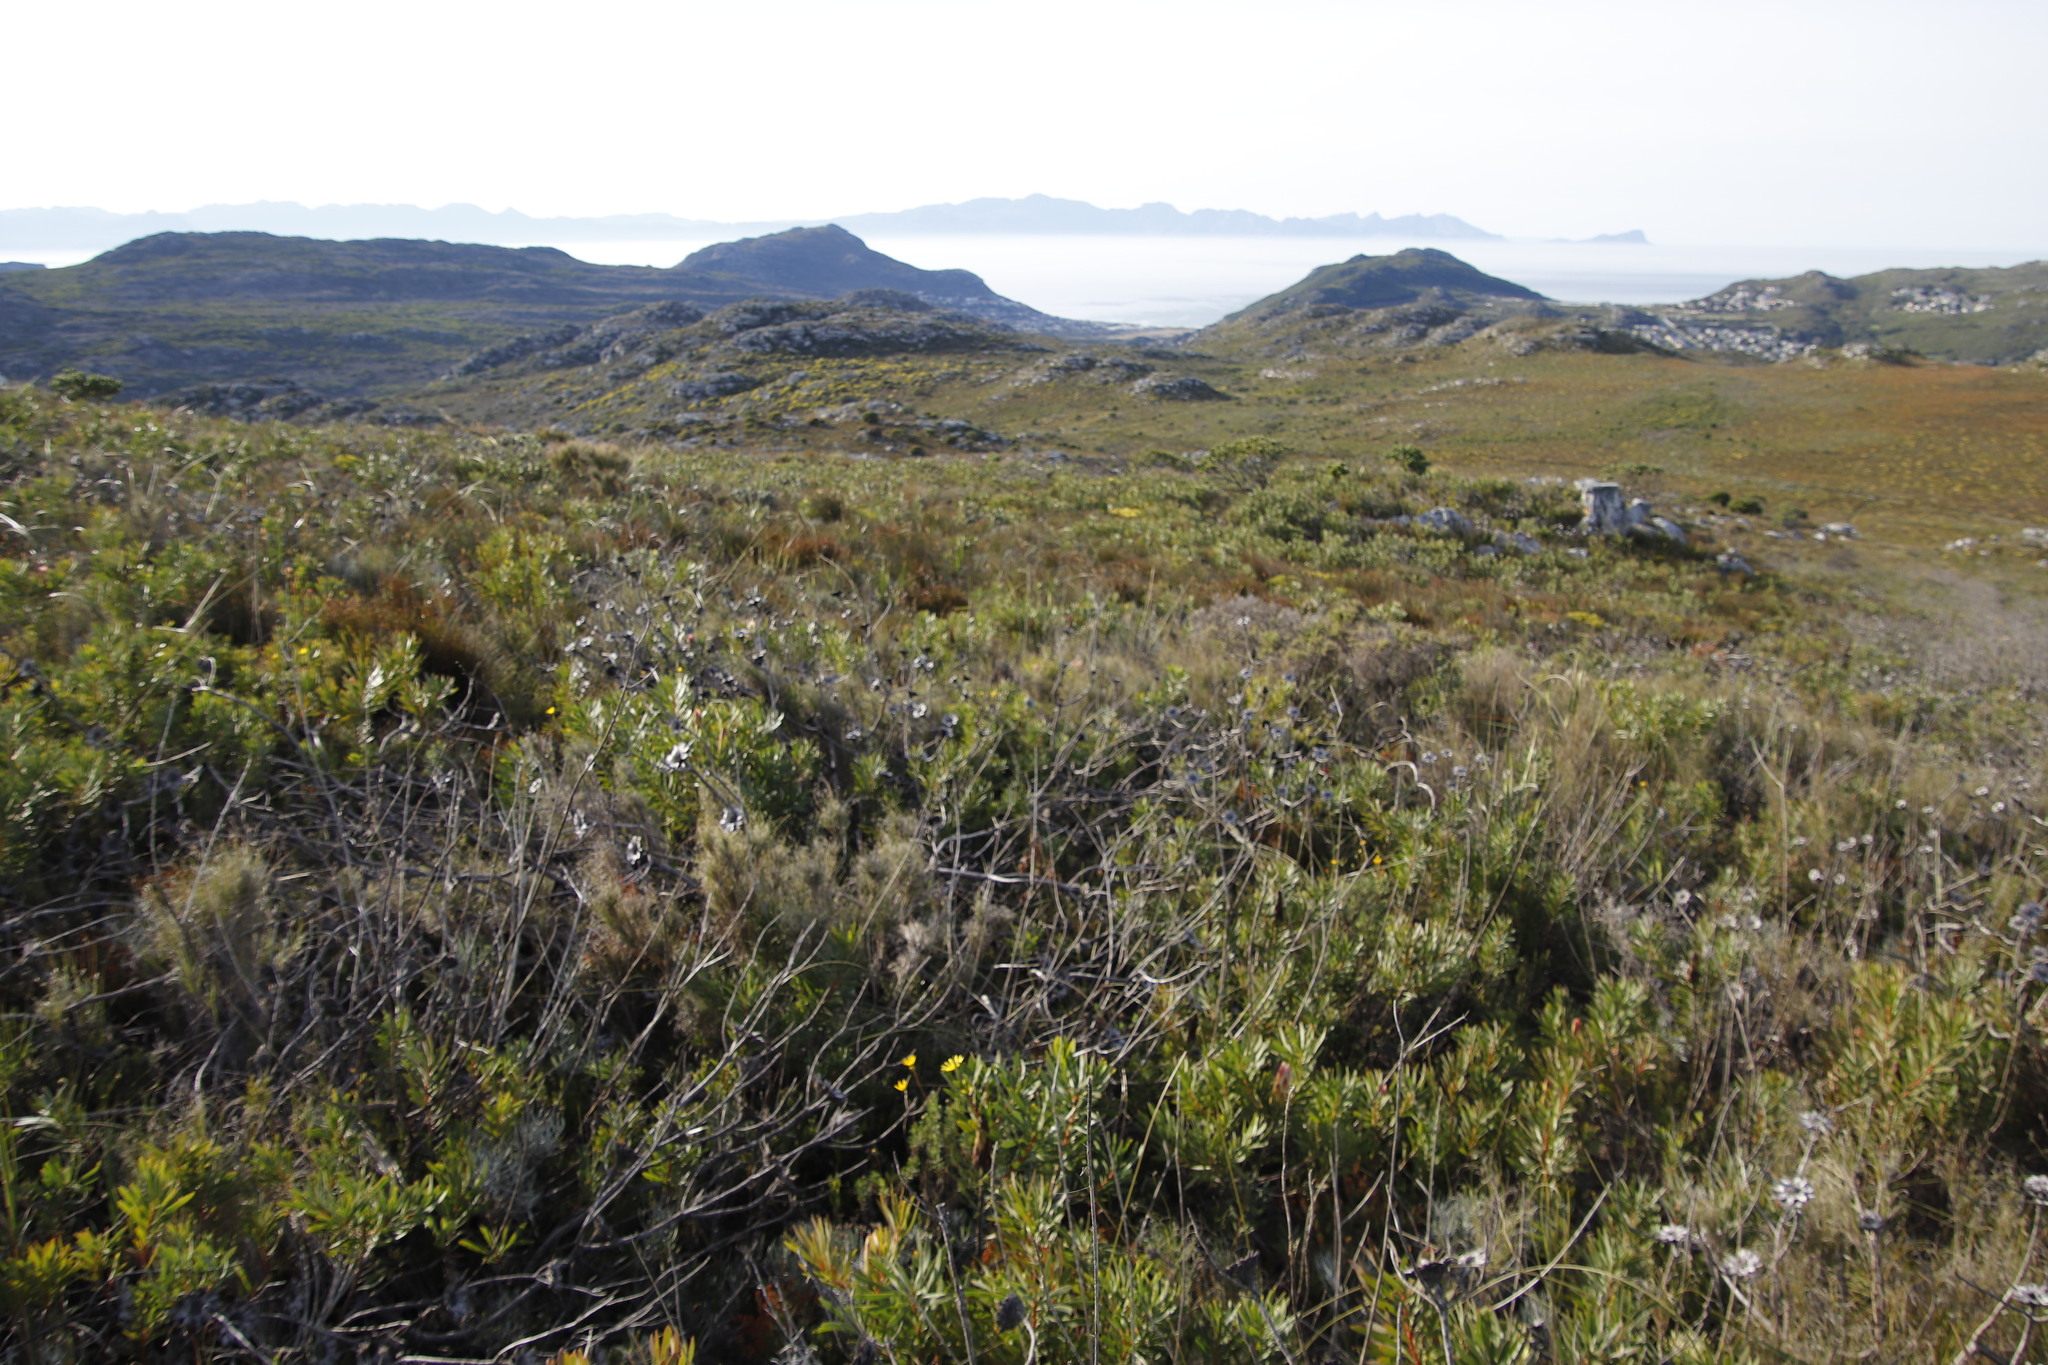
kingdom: Plantae
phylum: Tracheophyta
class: Magnoliopsida
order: Proteales
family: Proteaceae
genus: Protea
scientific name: Protea repens
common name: Sugarbush
